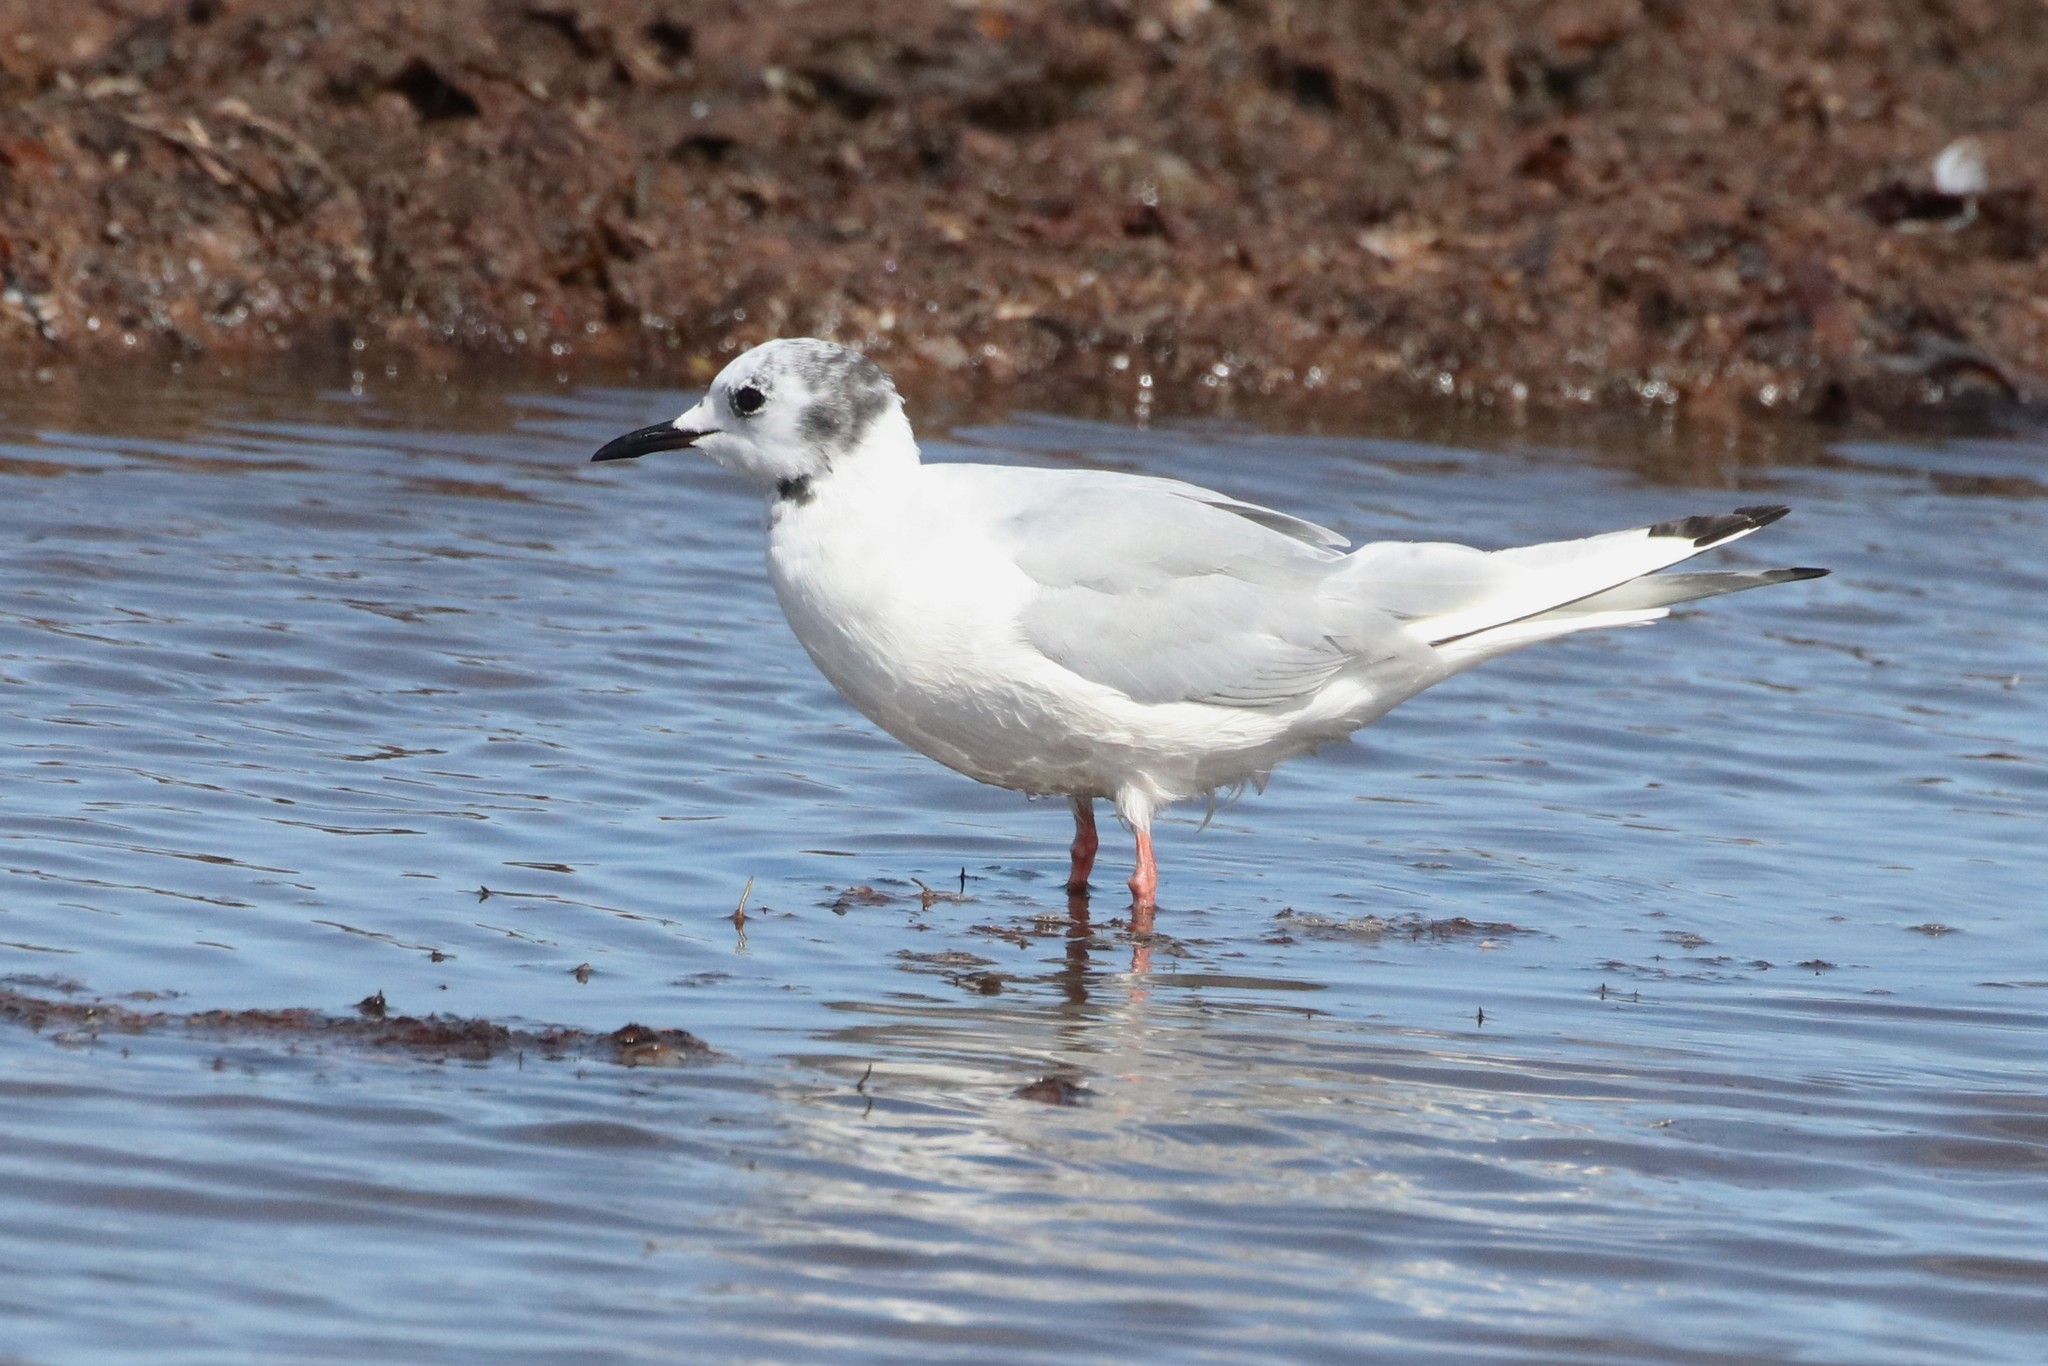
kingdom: Animalia
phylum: Chordata
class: Aves
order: Charadriiformes
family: Laridae
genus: Chroicocephalus
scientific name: Chroicocephalus philadelphia
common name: Bonaparte's gull
